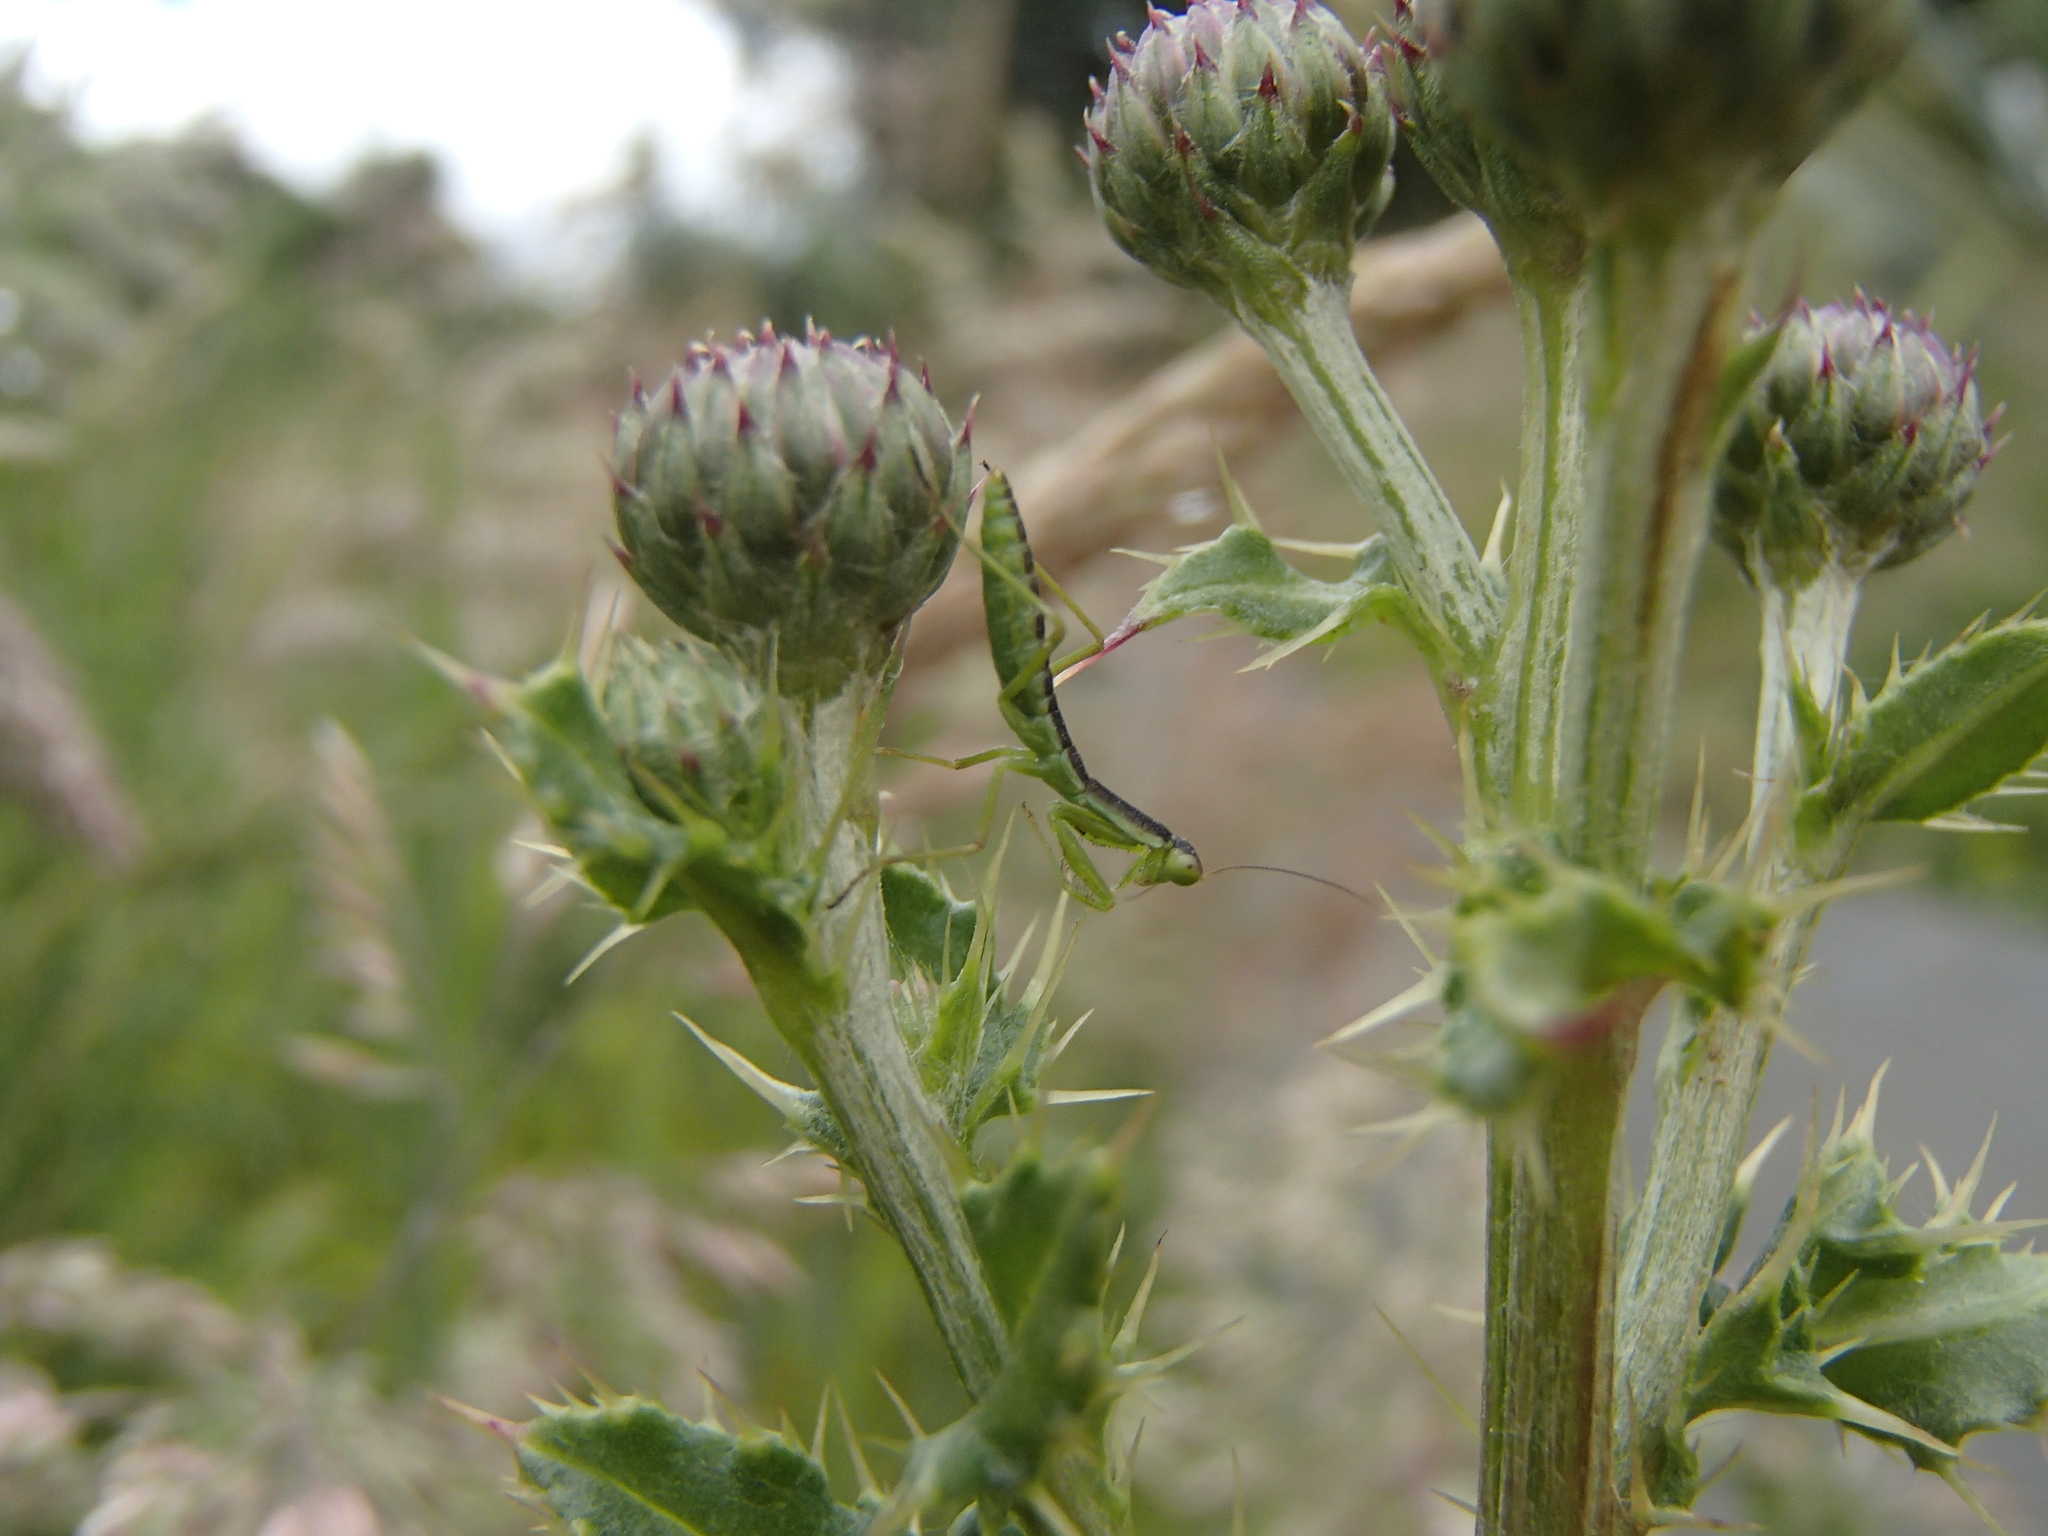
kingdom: Animalia
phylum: Arthropoda
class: Insecta
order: Mantodea
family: Mantidae
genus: Orthodera
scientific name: Orthodera novaezealandiae
